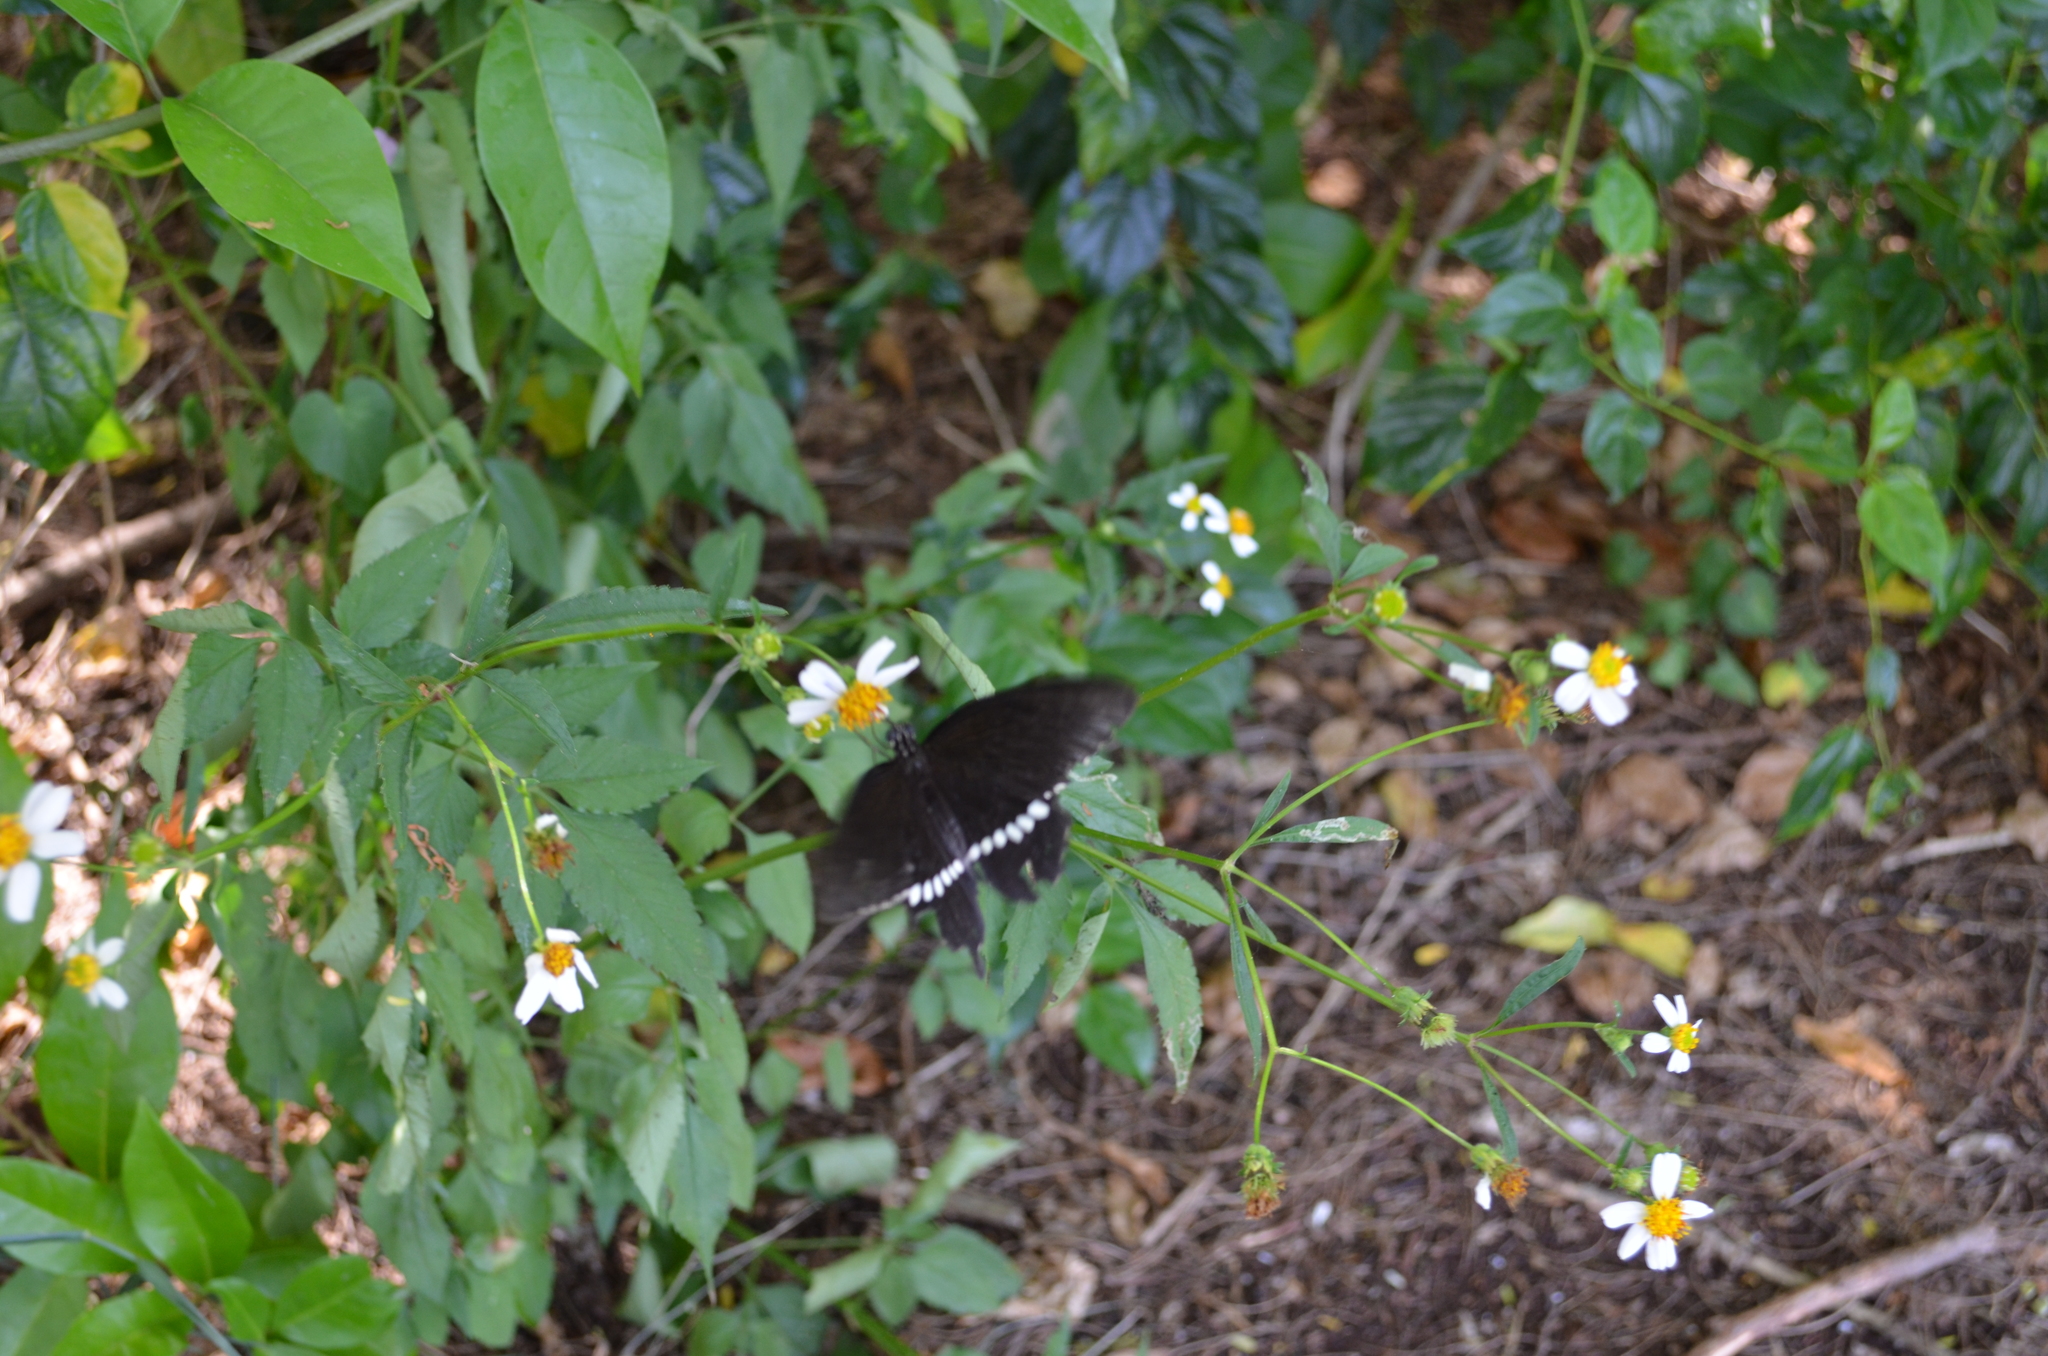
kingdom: Animalia
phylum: Arthropoda
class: Insecta
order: Lepidoptera
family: Papilionidae
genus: Papilio
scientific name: Papilio polytes
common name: Common mormon
